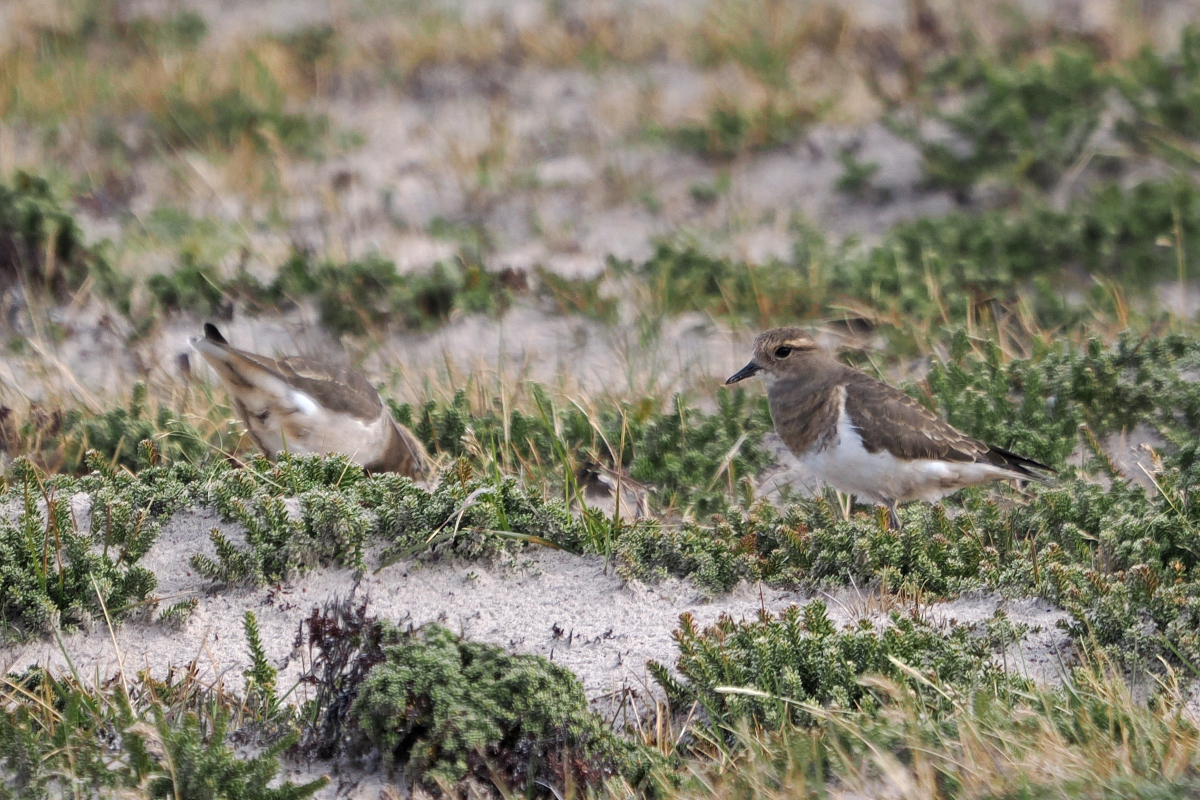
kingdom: Animalia
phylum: Chordata
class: Aves
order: Charadriiformes
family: Charadriidae
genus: Charadrius
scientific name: Charadrius modestus
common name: Rufous-chested plover
